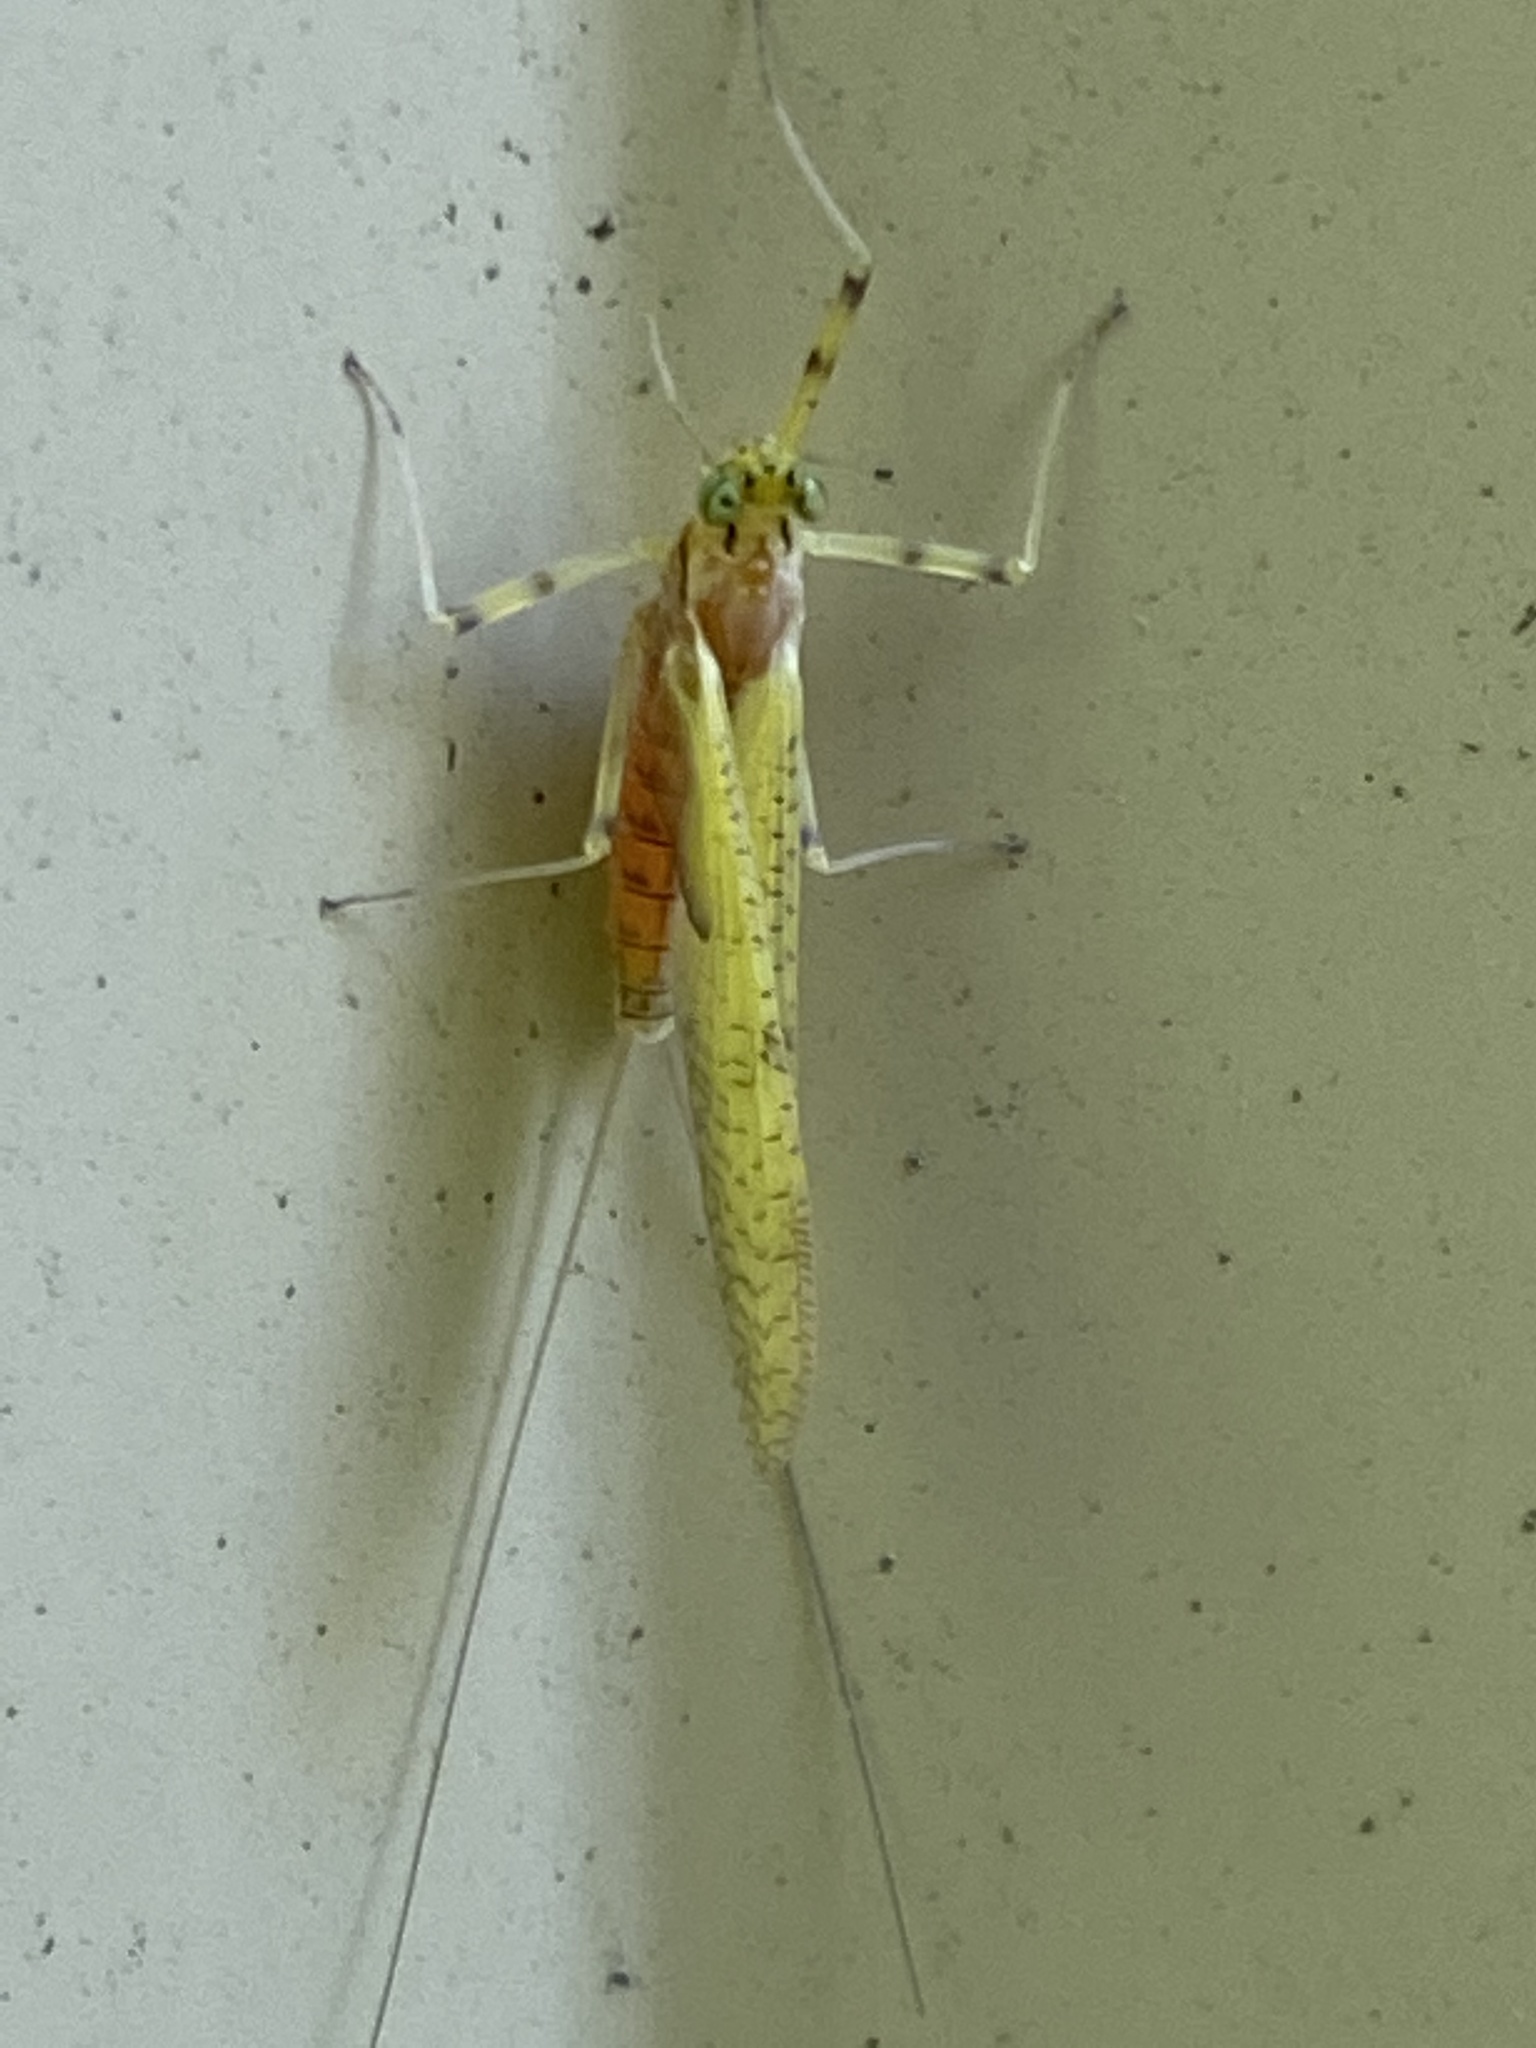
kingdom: Animalia
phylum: Arthropoda
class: Insecta
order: Ephemeroptera
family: Heptageniidae
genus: Stenacron
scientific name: Stenacron interpunctatum
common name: Orange cahill
